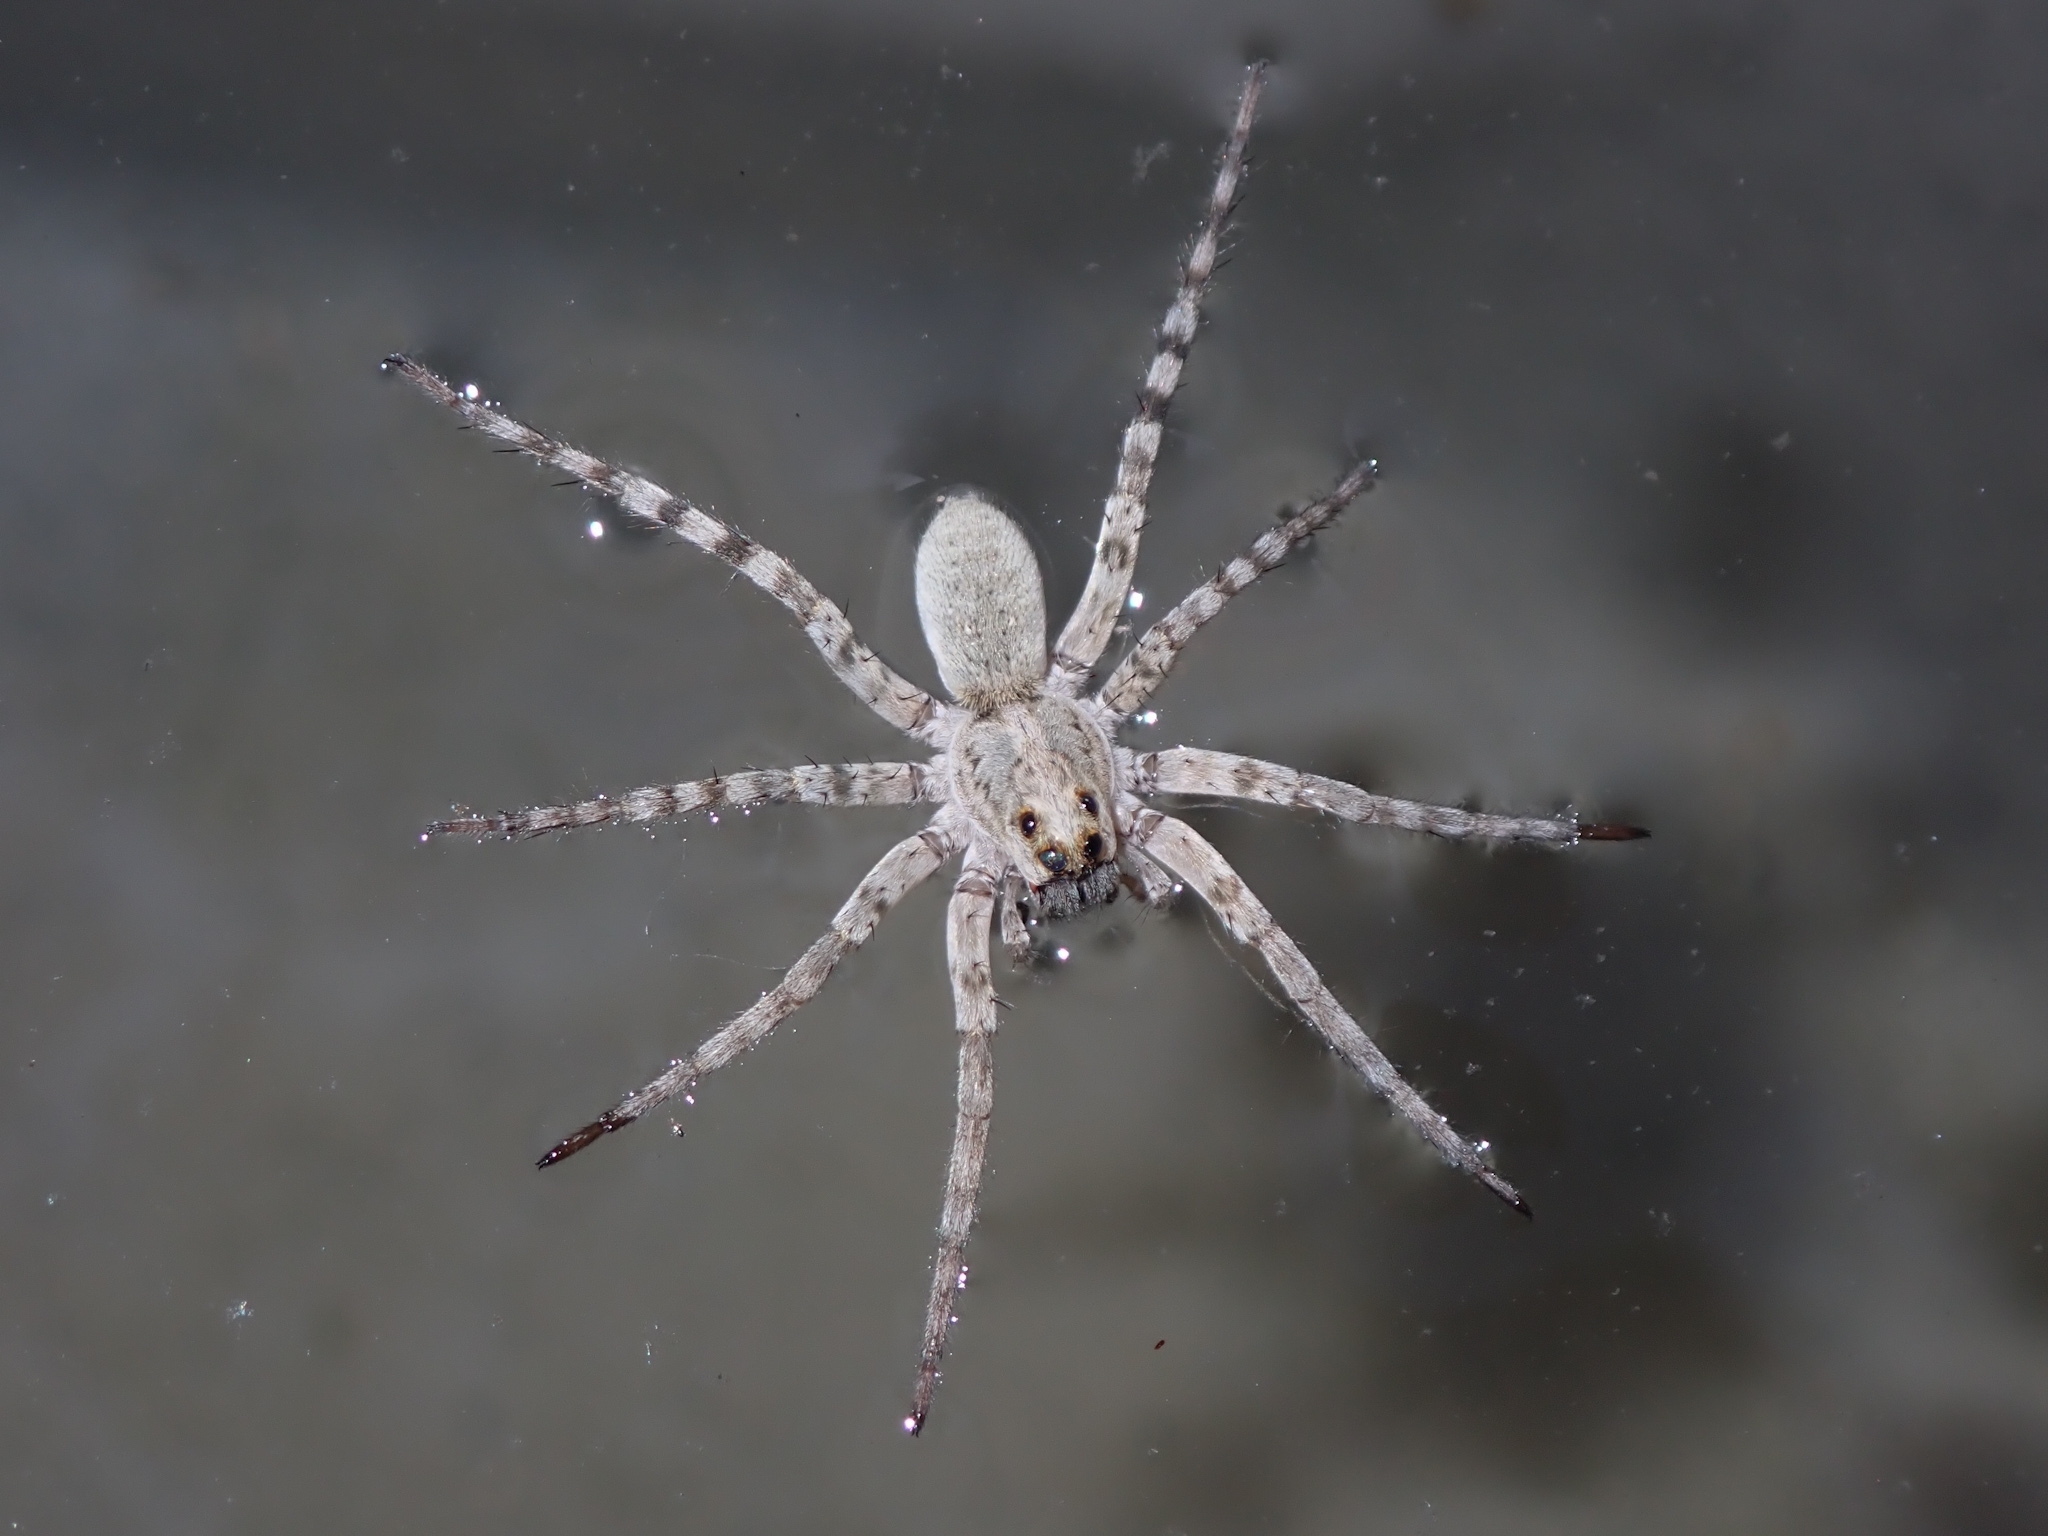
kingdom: Animalia
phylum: Arthropoda
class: Arachnida
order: Araneae
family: Lycosidae
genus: Arctosa
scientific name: Arctosa littoralis
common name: Wolf spiders
